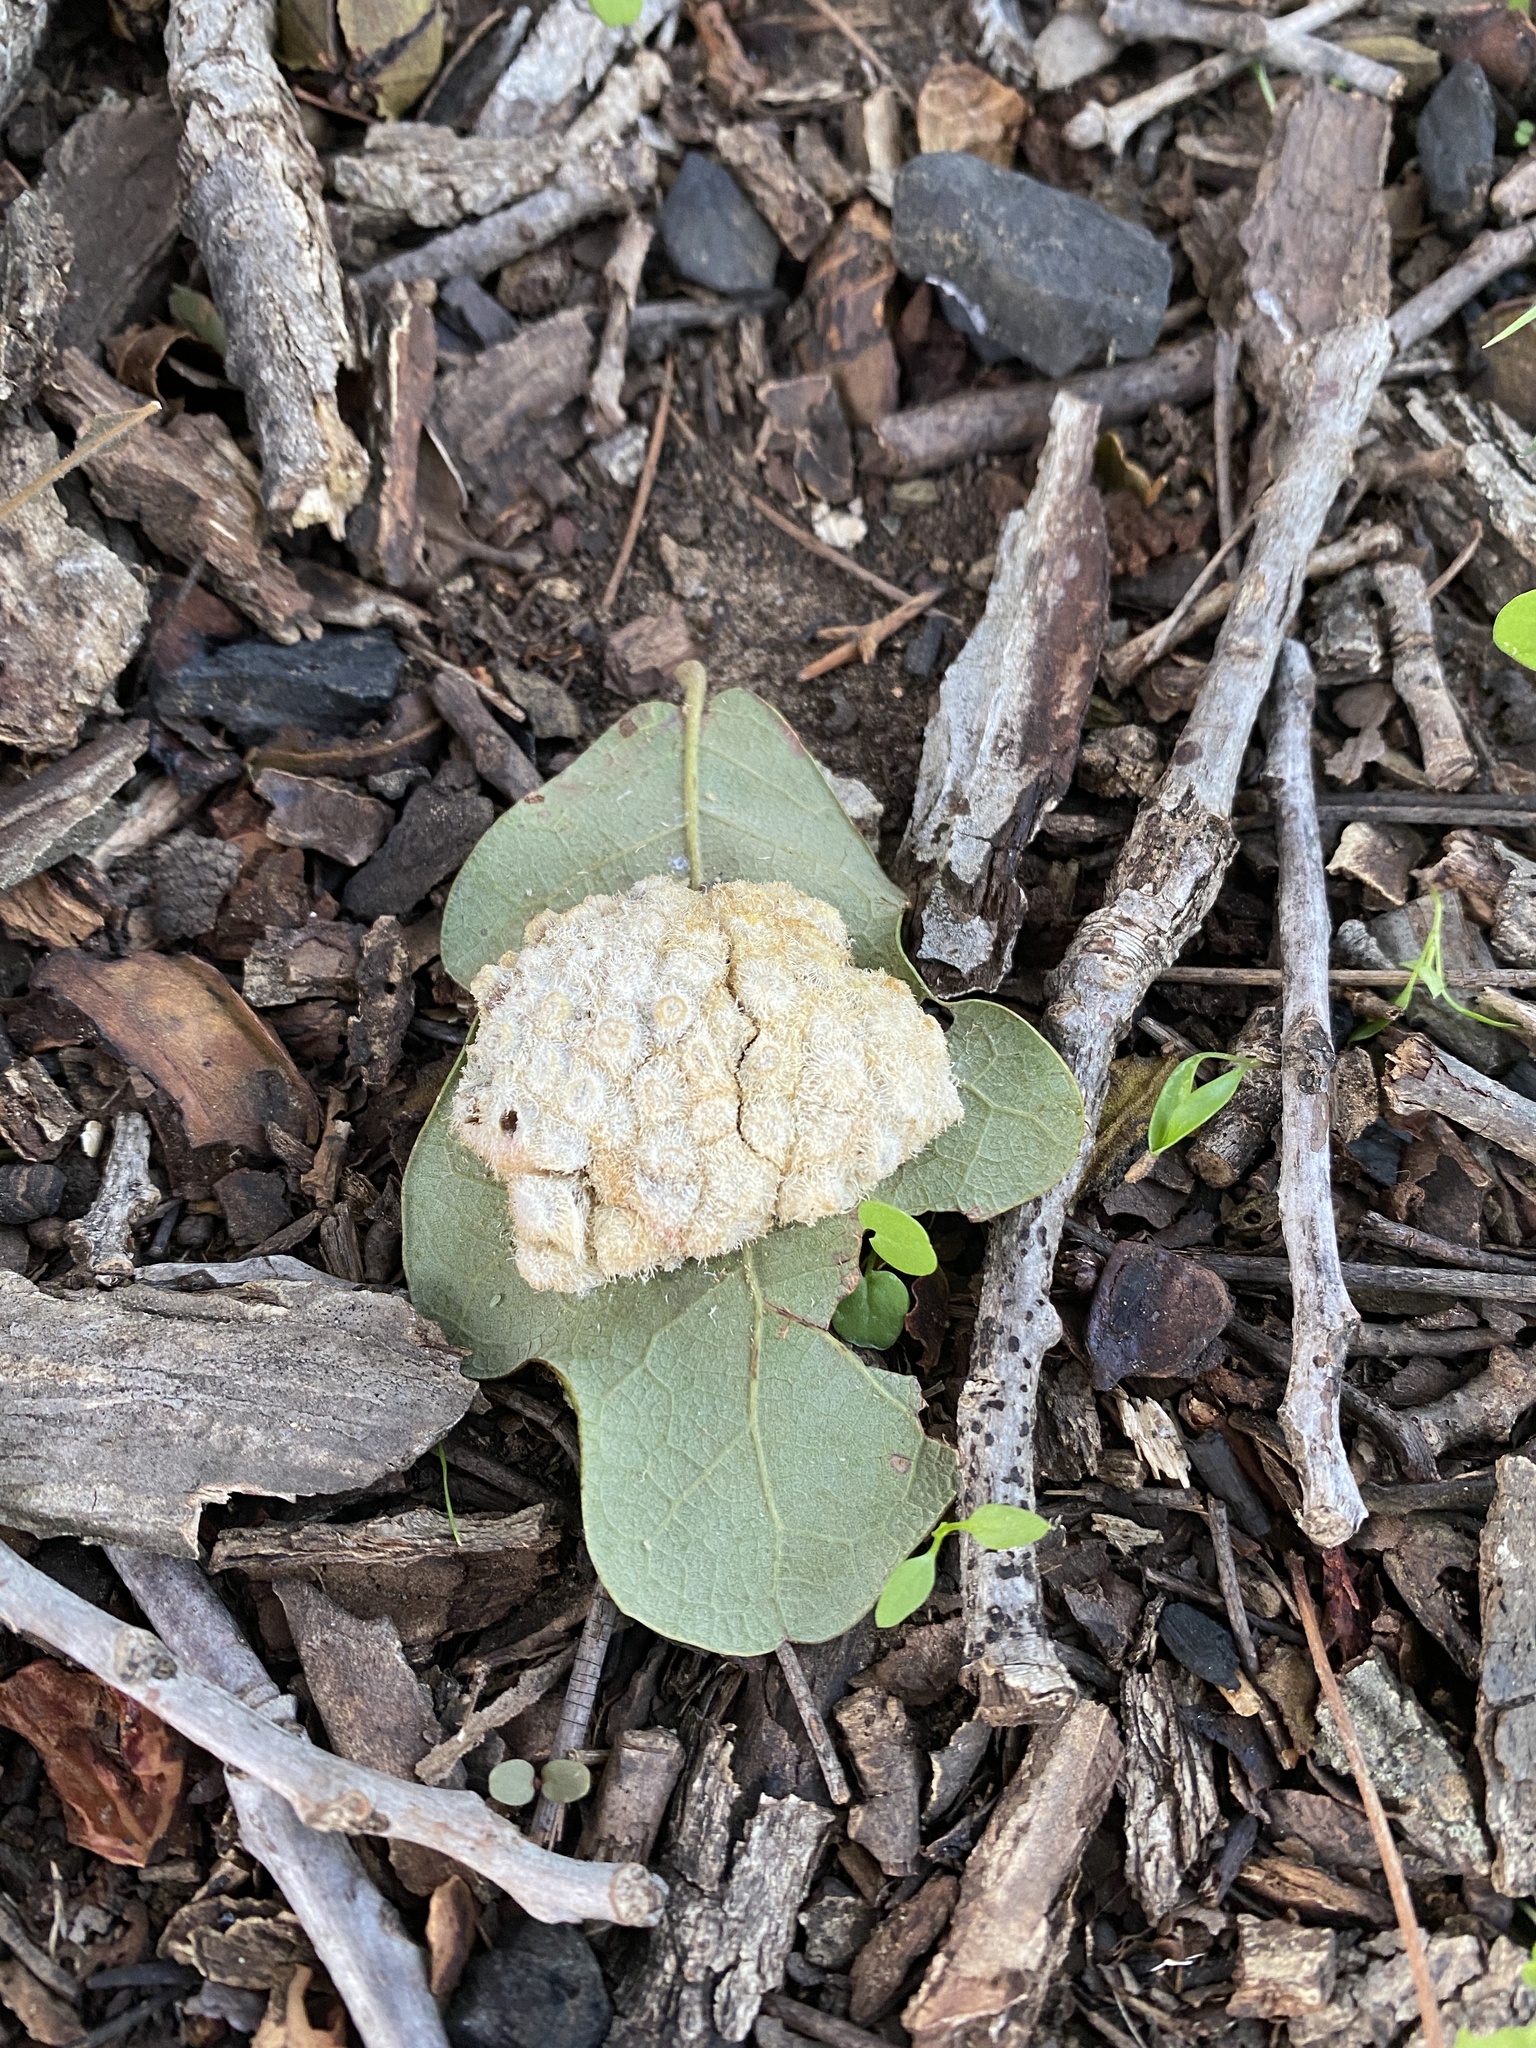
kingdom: Animalia
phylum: Arthropoda
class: Insecta
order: Hymenoptera
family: Cynipidae
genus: Andricus
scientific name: Andricus
